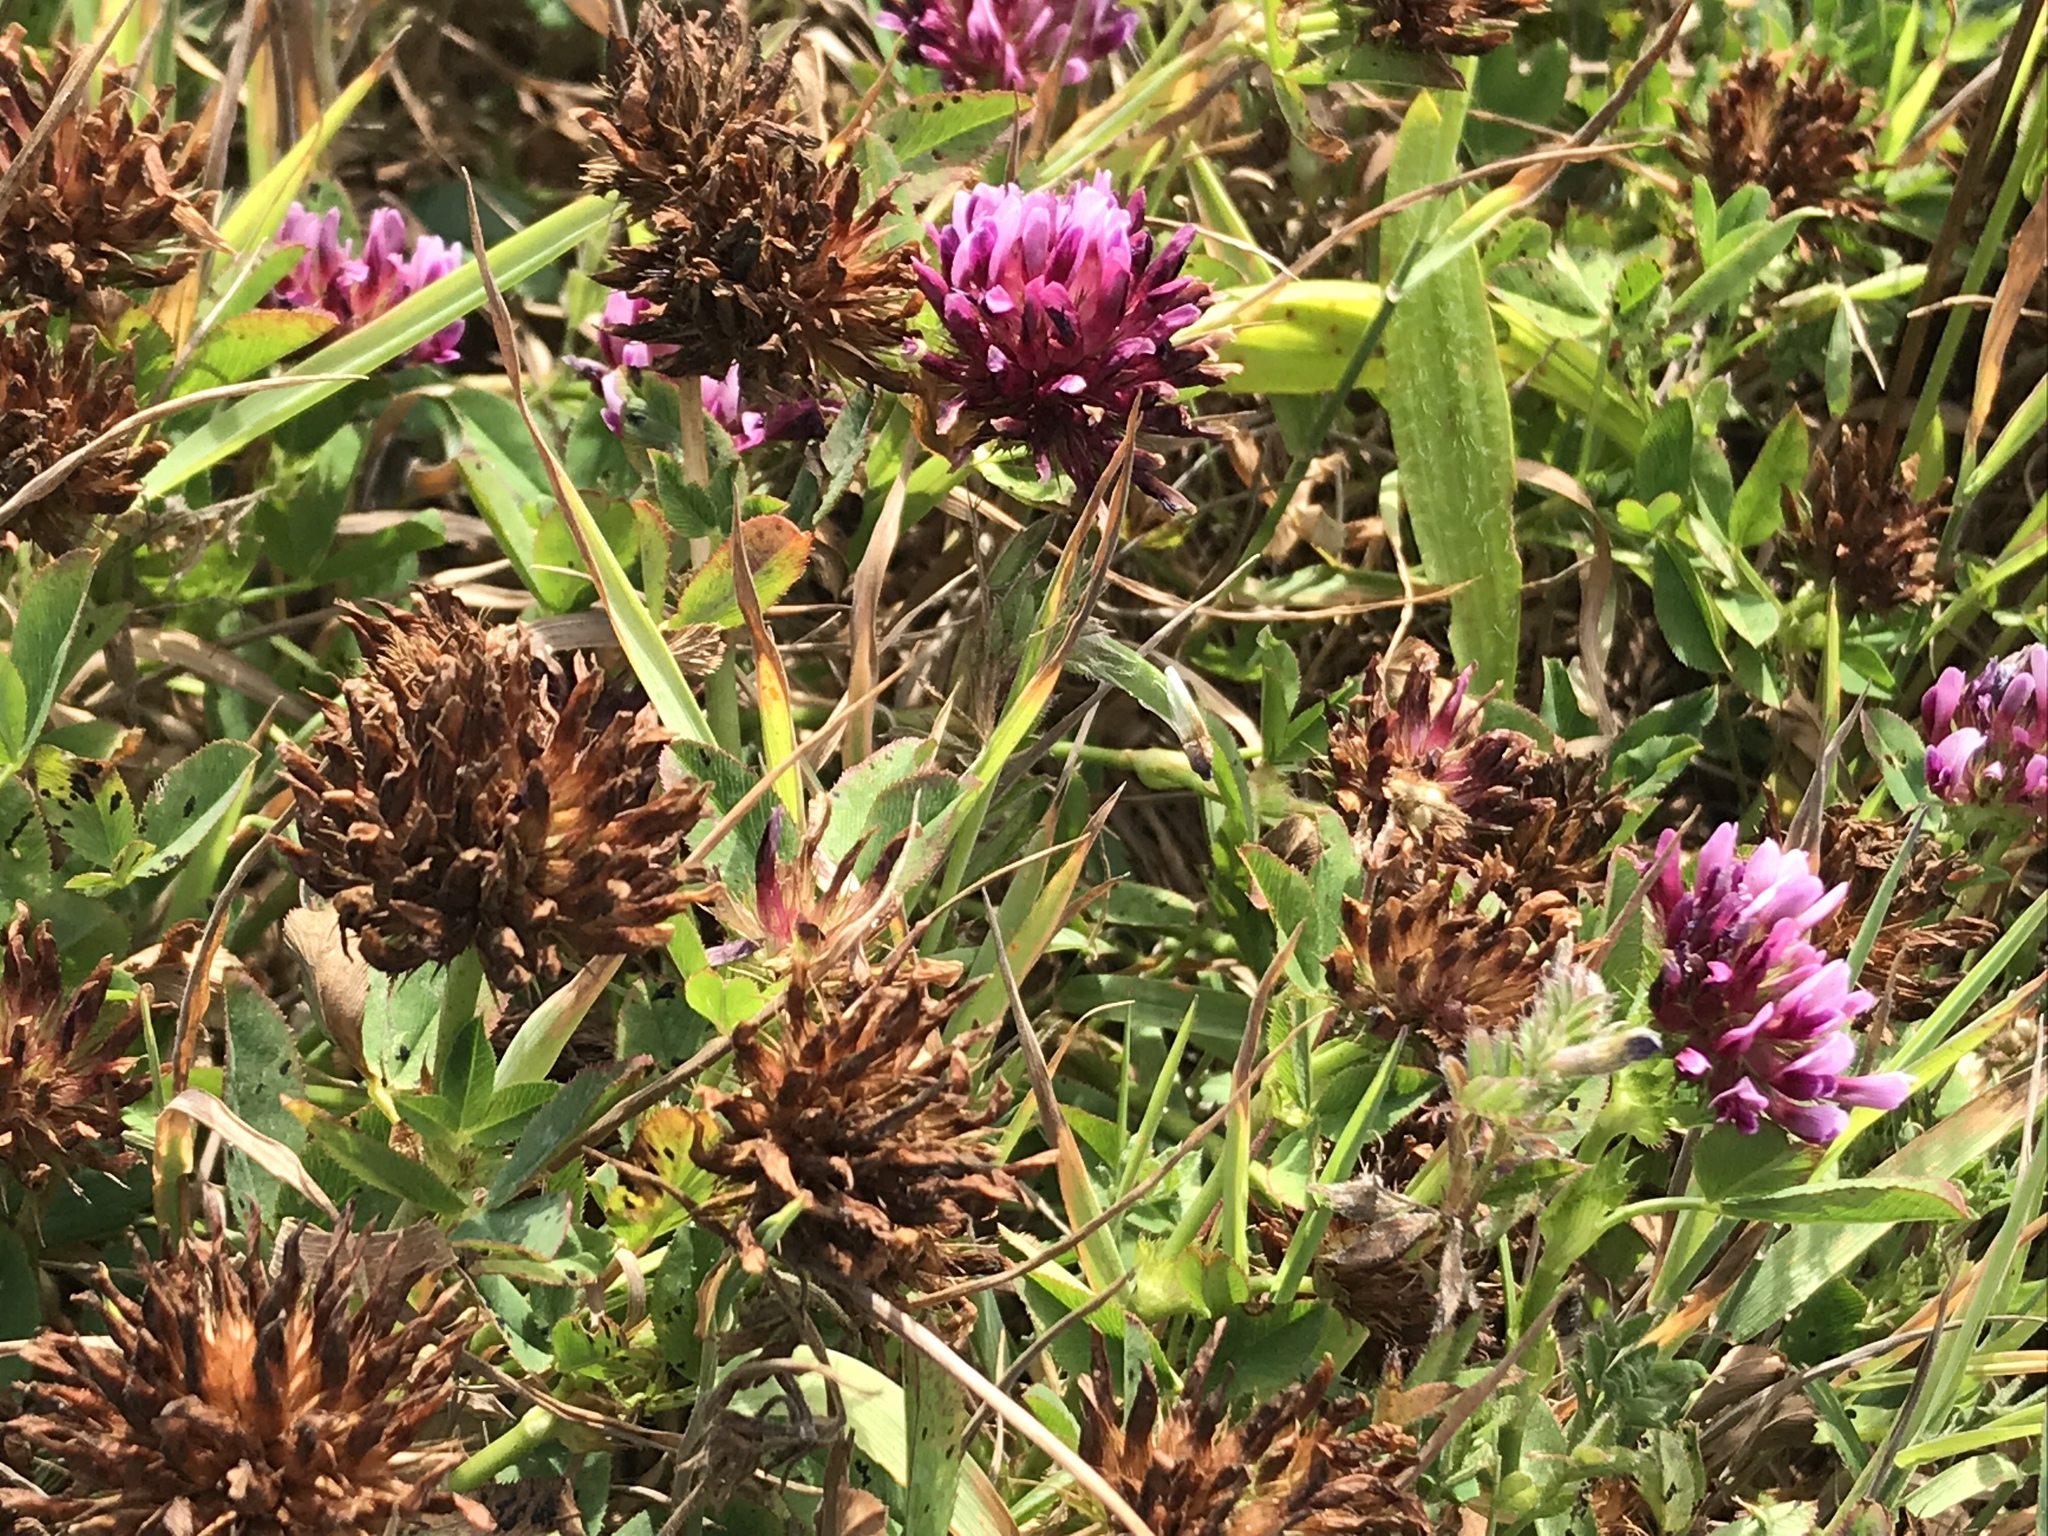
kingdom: Plantae
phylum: Tracheophyta
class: Magnoliopsida
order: Fabales
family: Fabaceae
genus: Trifolium
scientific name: Trifolium wormskioldii
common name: Springbank clover
